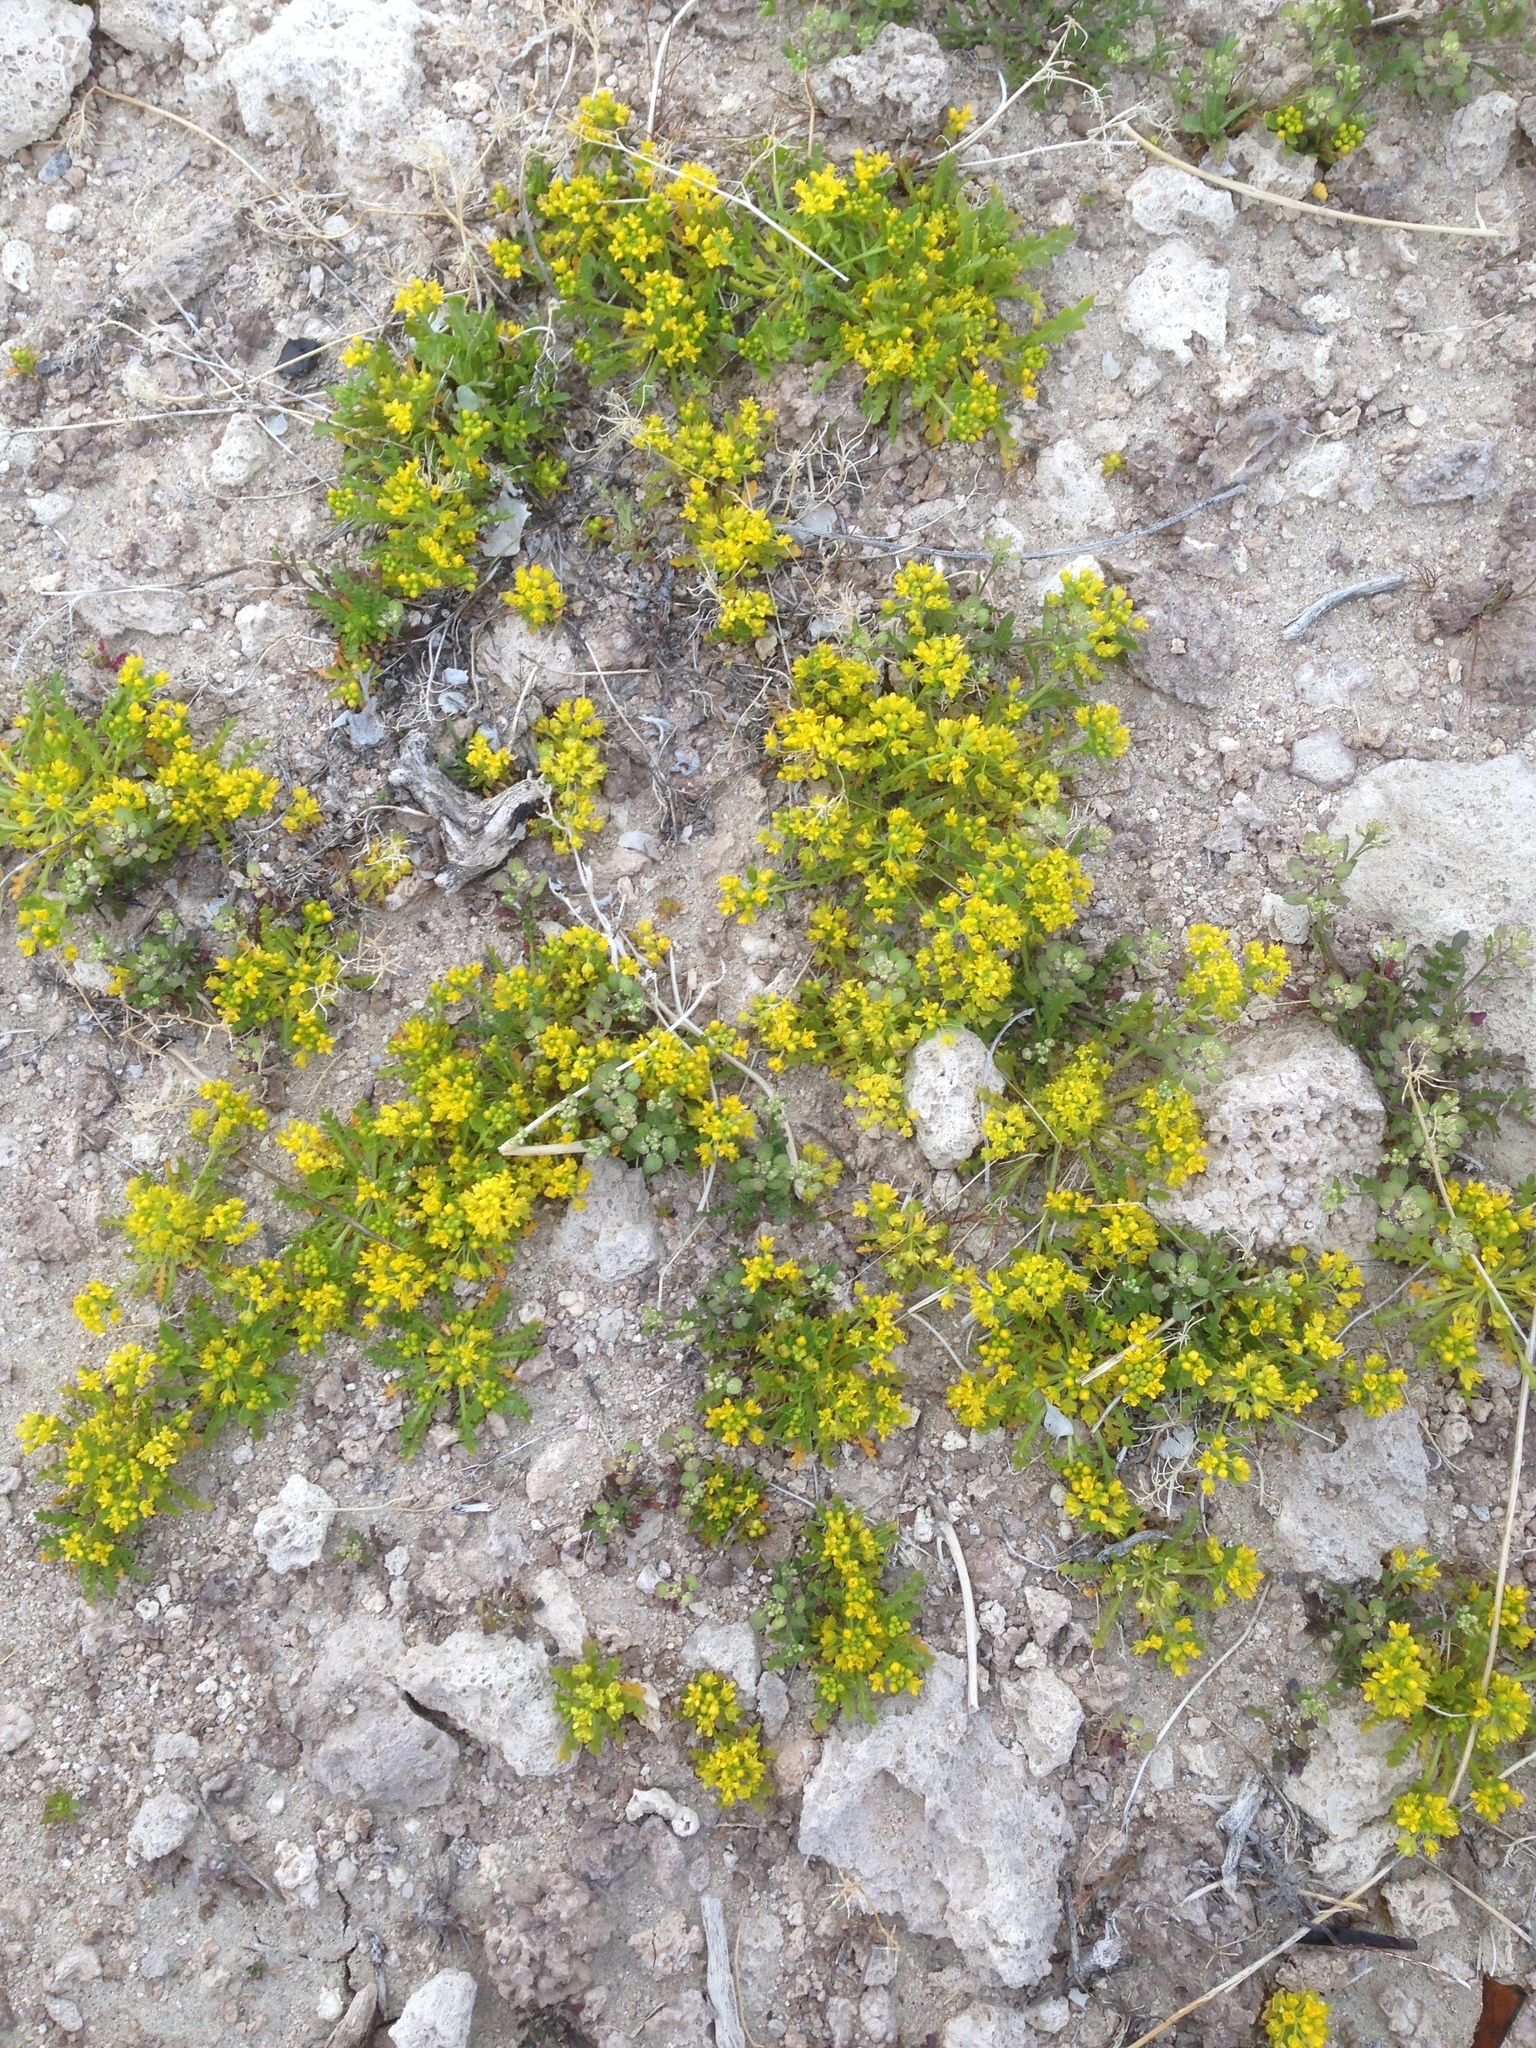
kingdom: Plantae
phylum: Tracheophyta
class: Magnoliopsida
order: Brassicales
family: Brassicaceae
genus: Lepidium
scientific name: Lepidium flavum
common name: Yellow pepperwort
